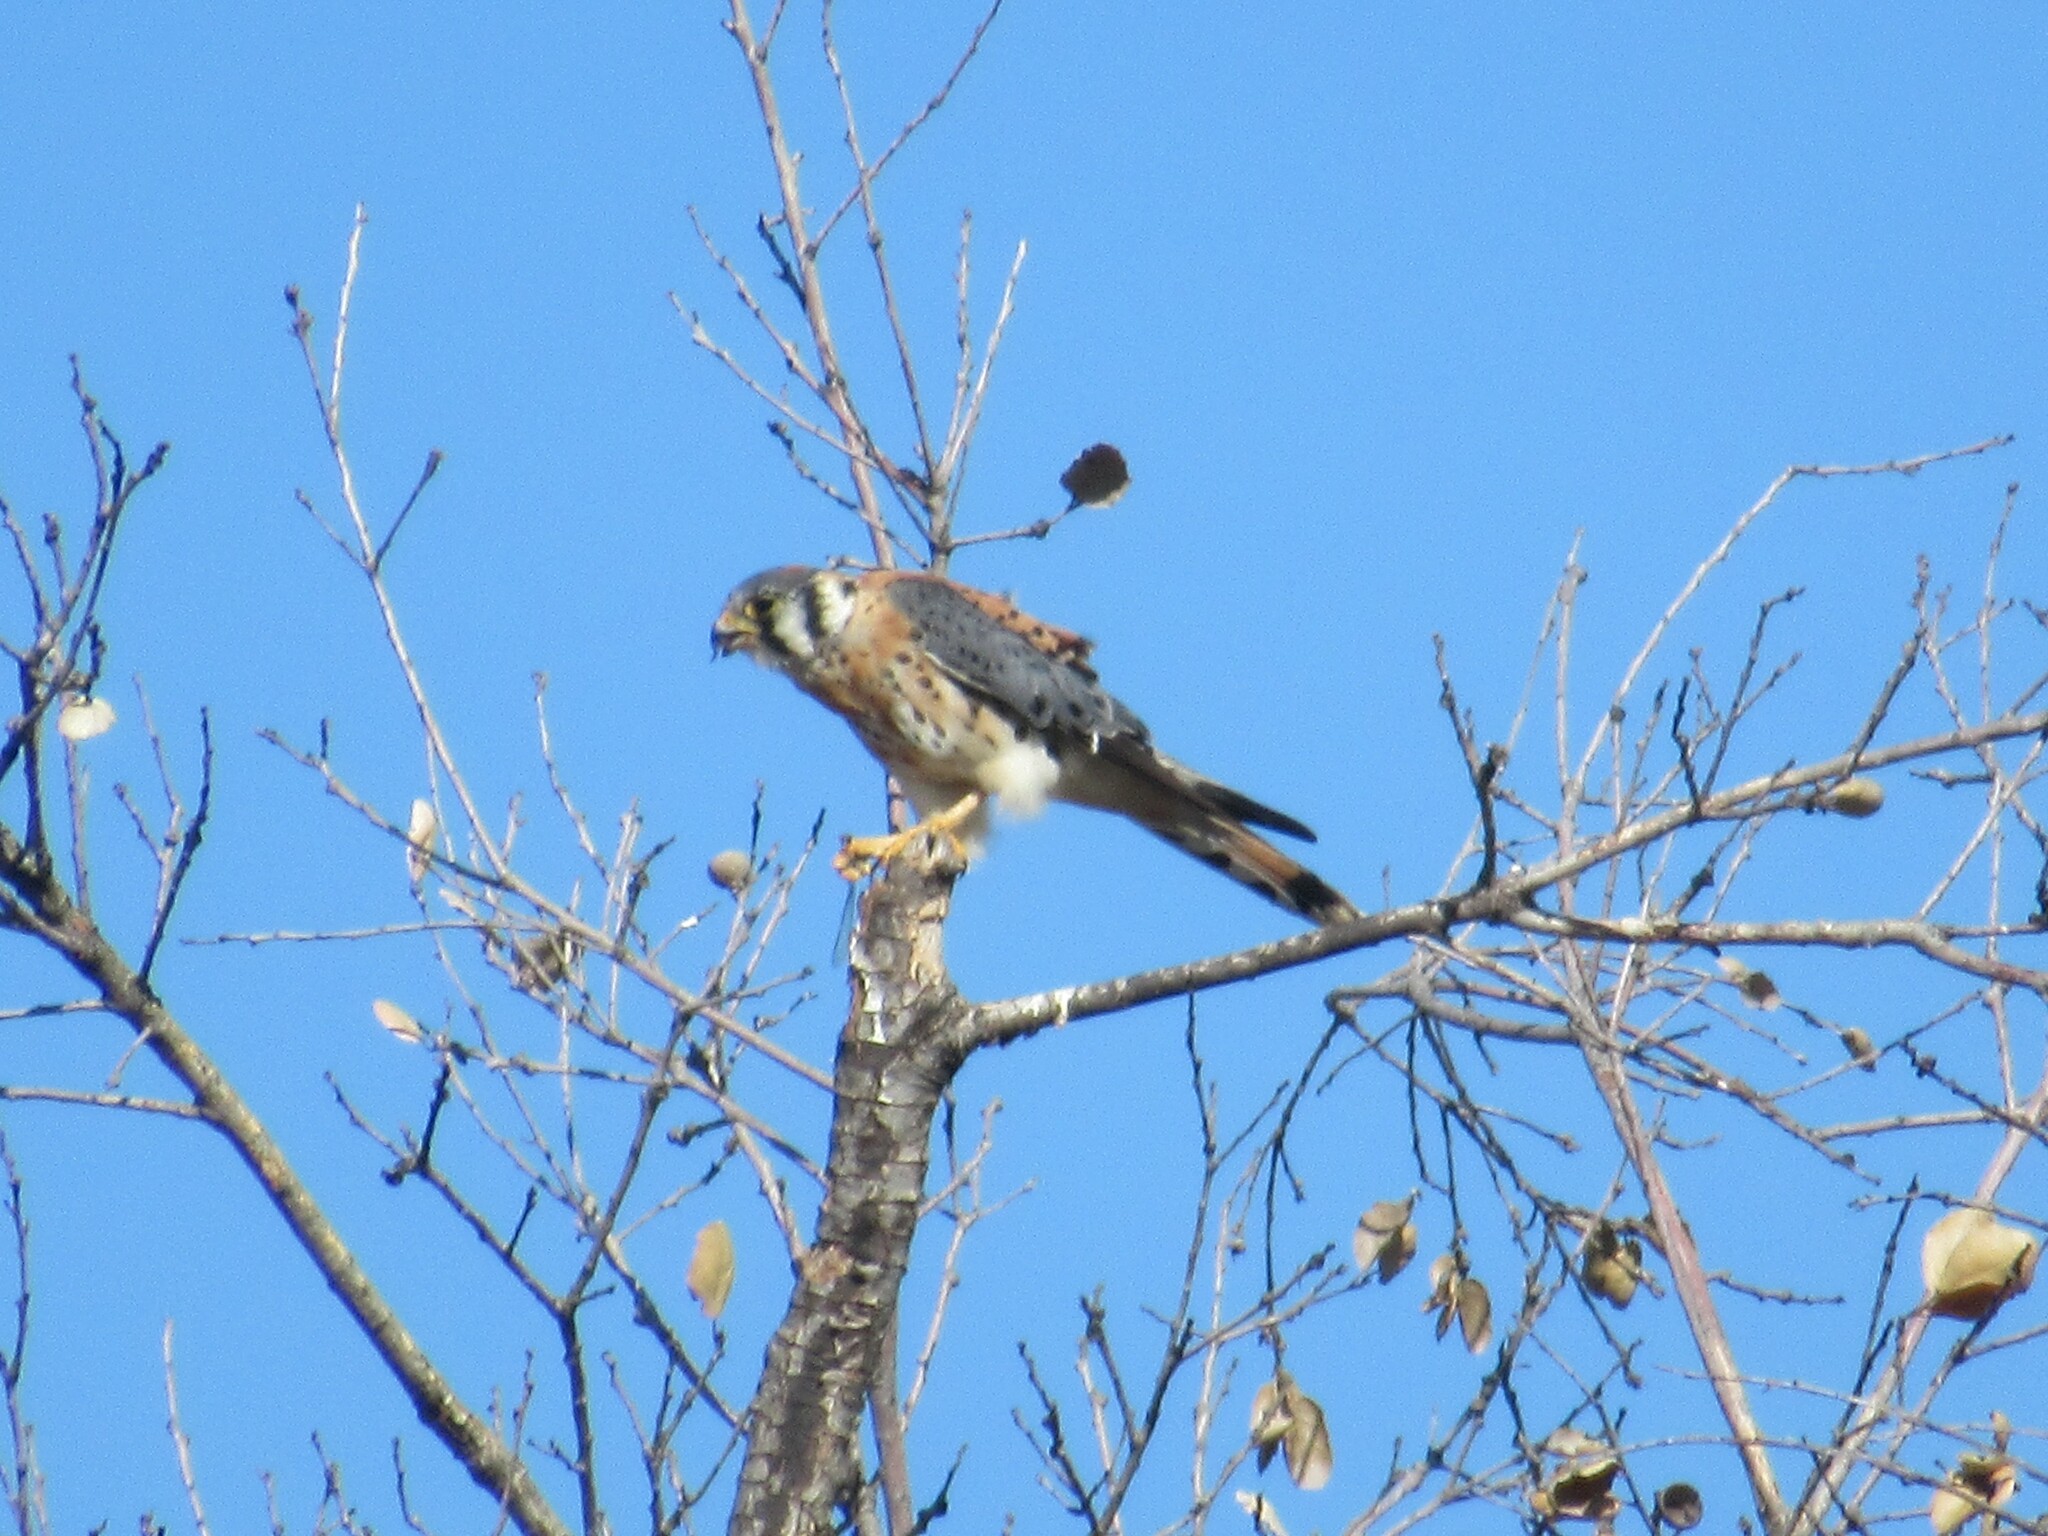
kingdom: Animalia
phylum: Chordata
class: Aves
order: Falconiformes
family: Falconidae
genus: Falco
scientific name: Falco sparverius
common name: American kestrel
